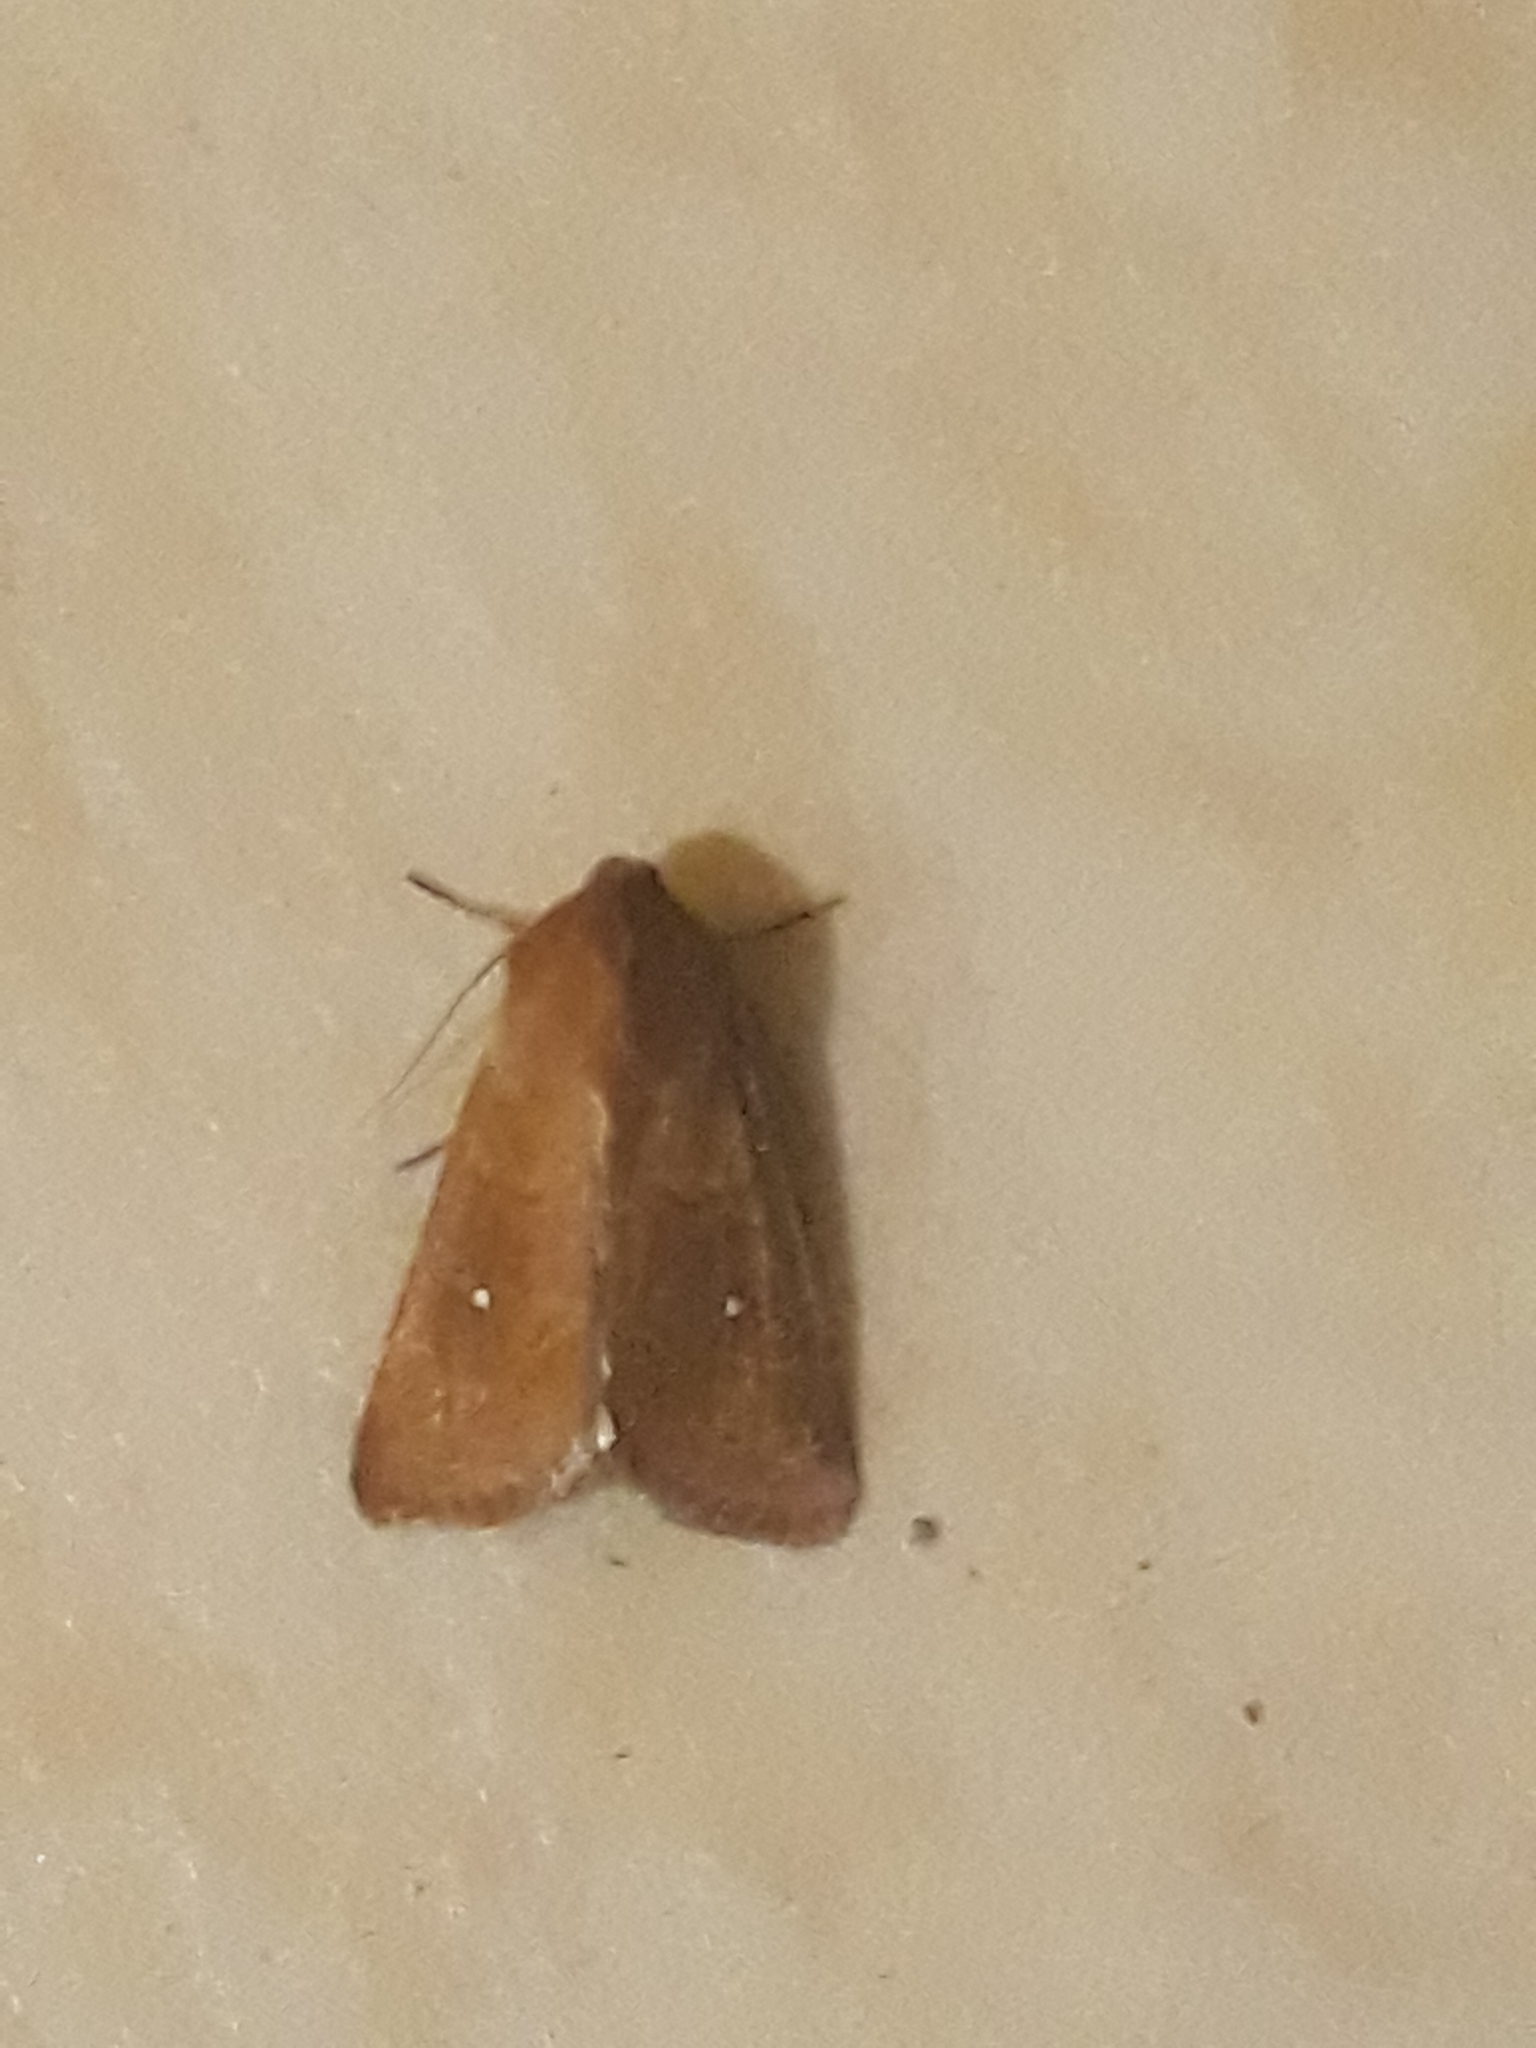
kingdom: Animalia
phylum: Arthropoda
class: Insecta
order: Lepidoptera
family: Noctuidae
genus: Mythimna
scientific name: Mythimna albipuncta
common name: White-point
